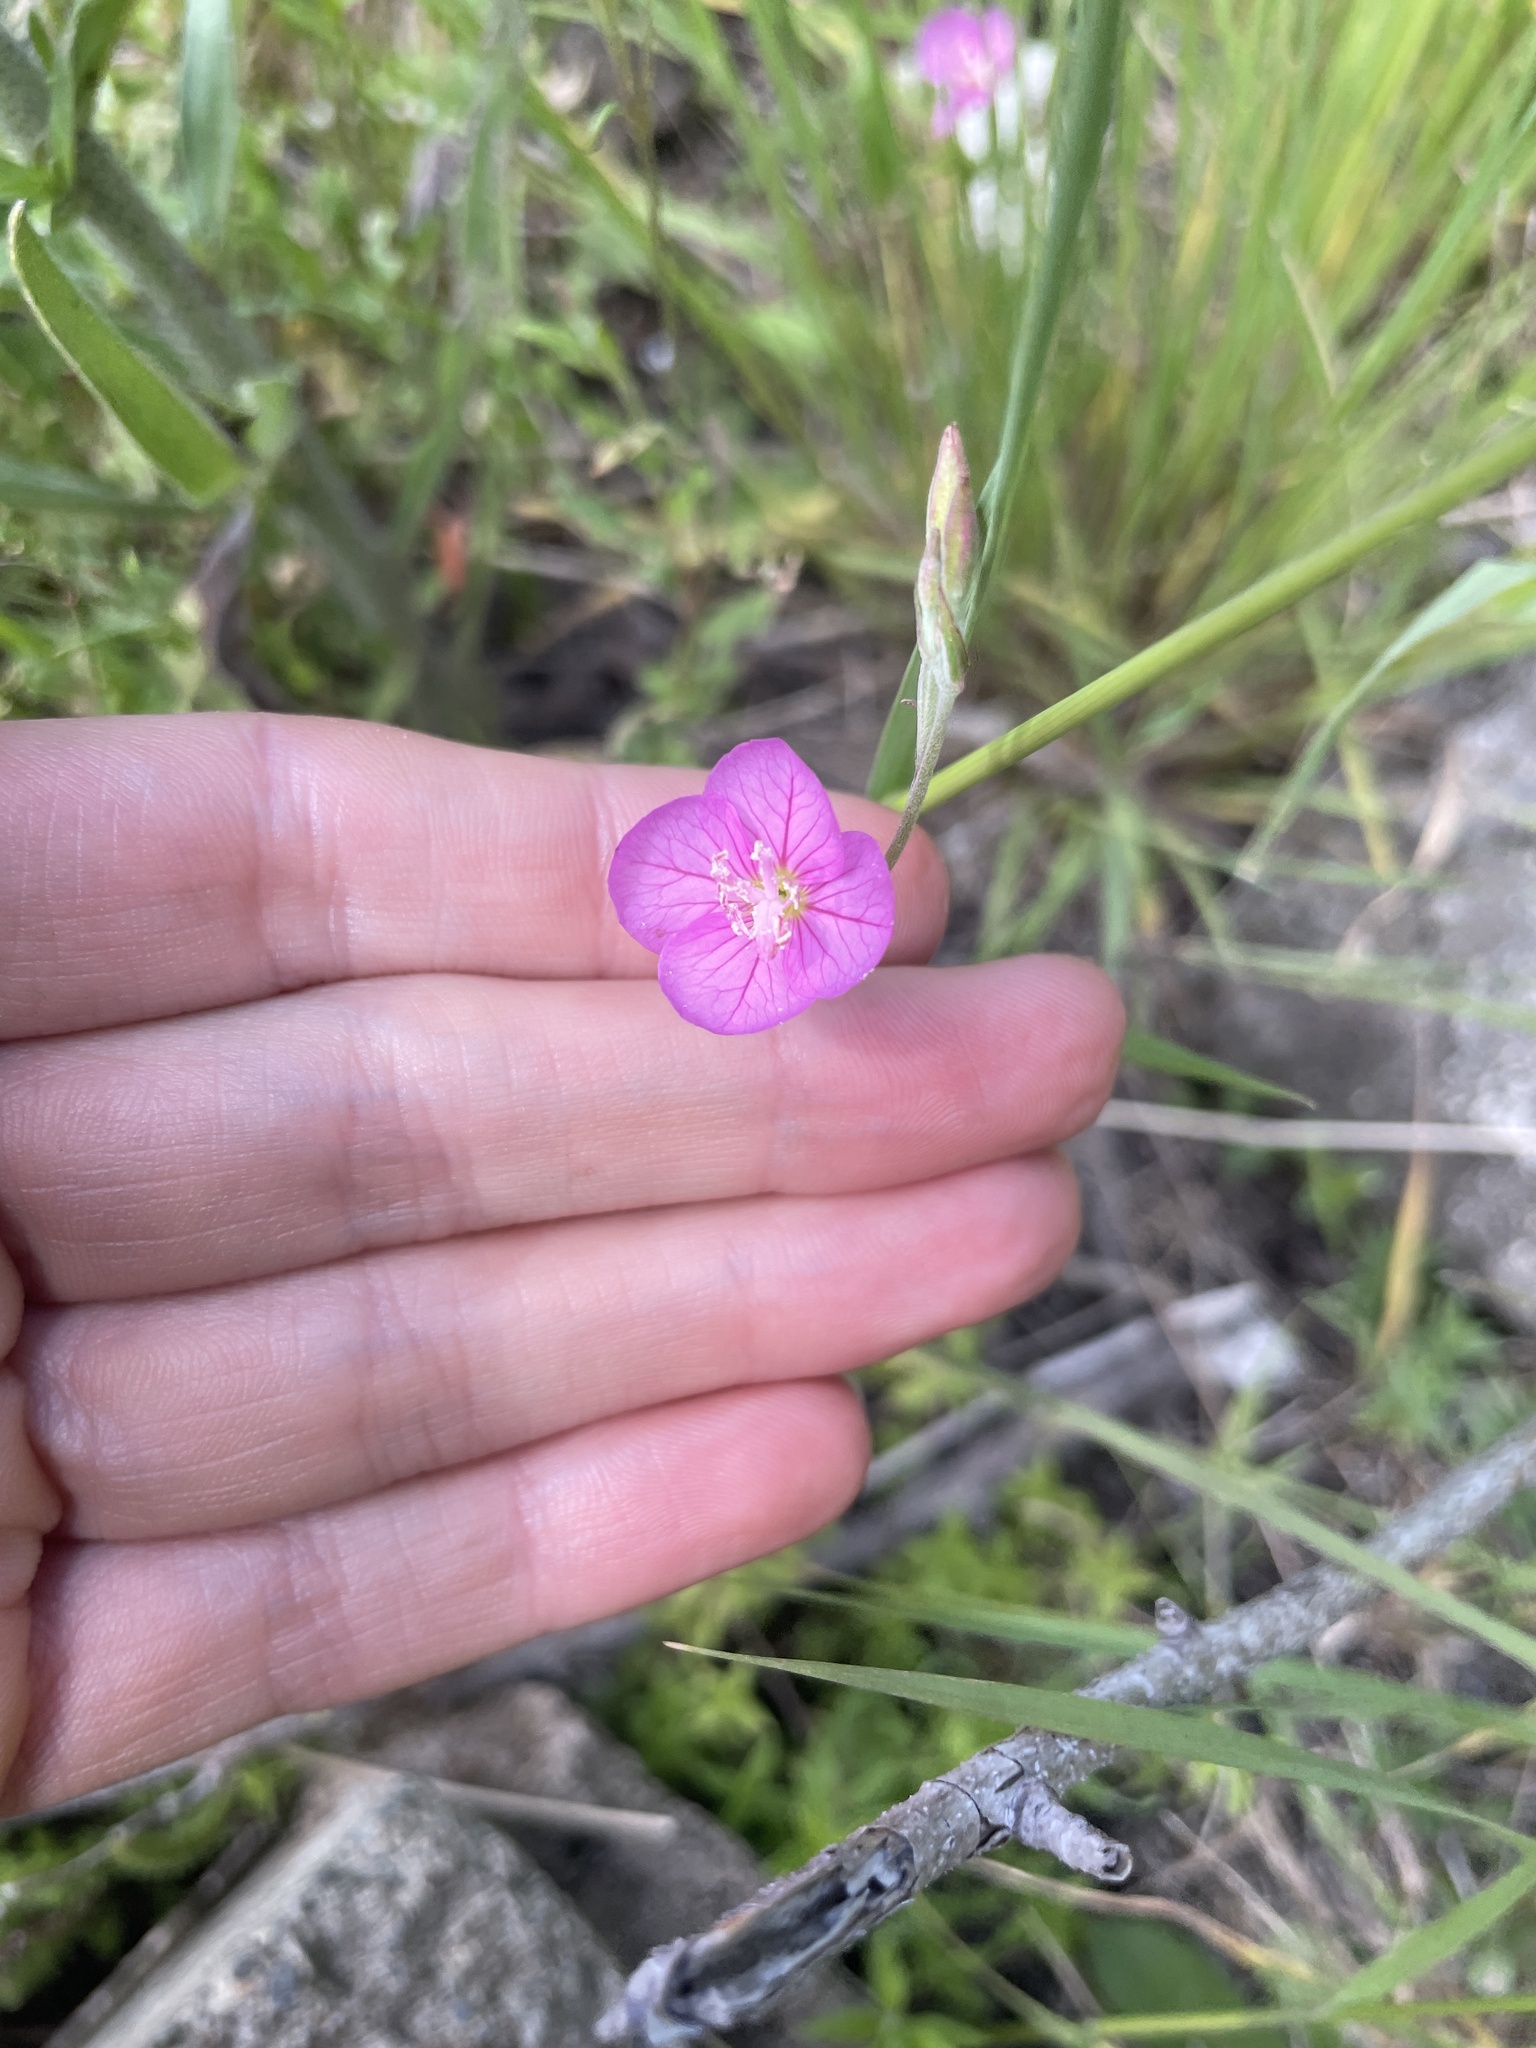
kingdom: Plantae
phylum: Tracheophyta
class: Magnoliopsida
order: Myrtales
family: Onagraceae
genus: Oenothera
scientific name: Oenothera rosea
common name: Rosy evening-primrose
